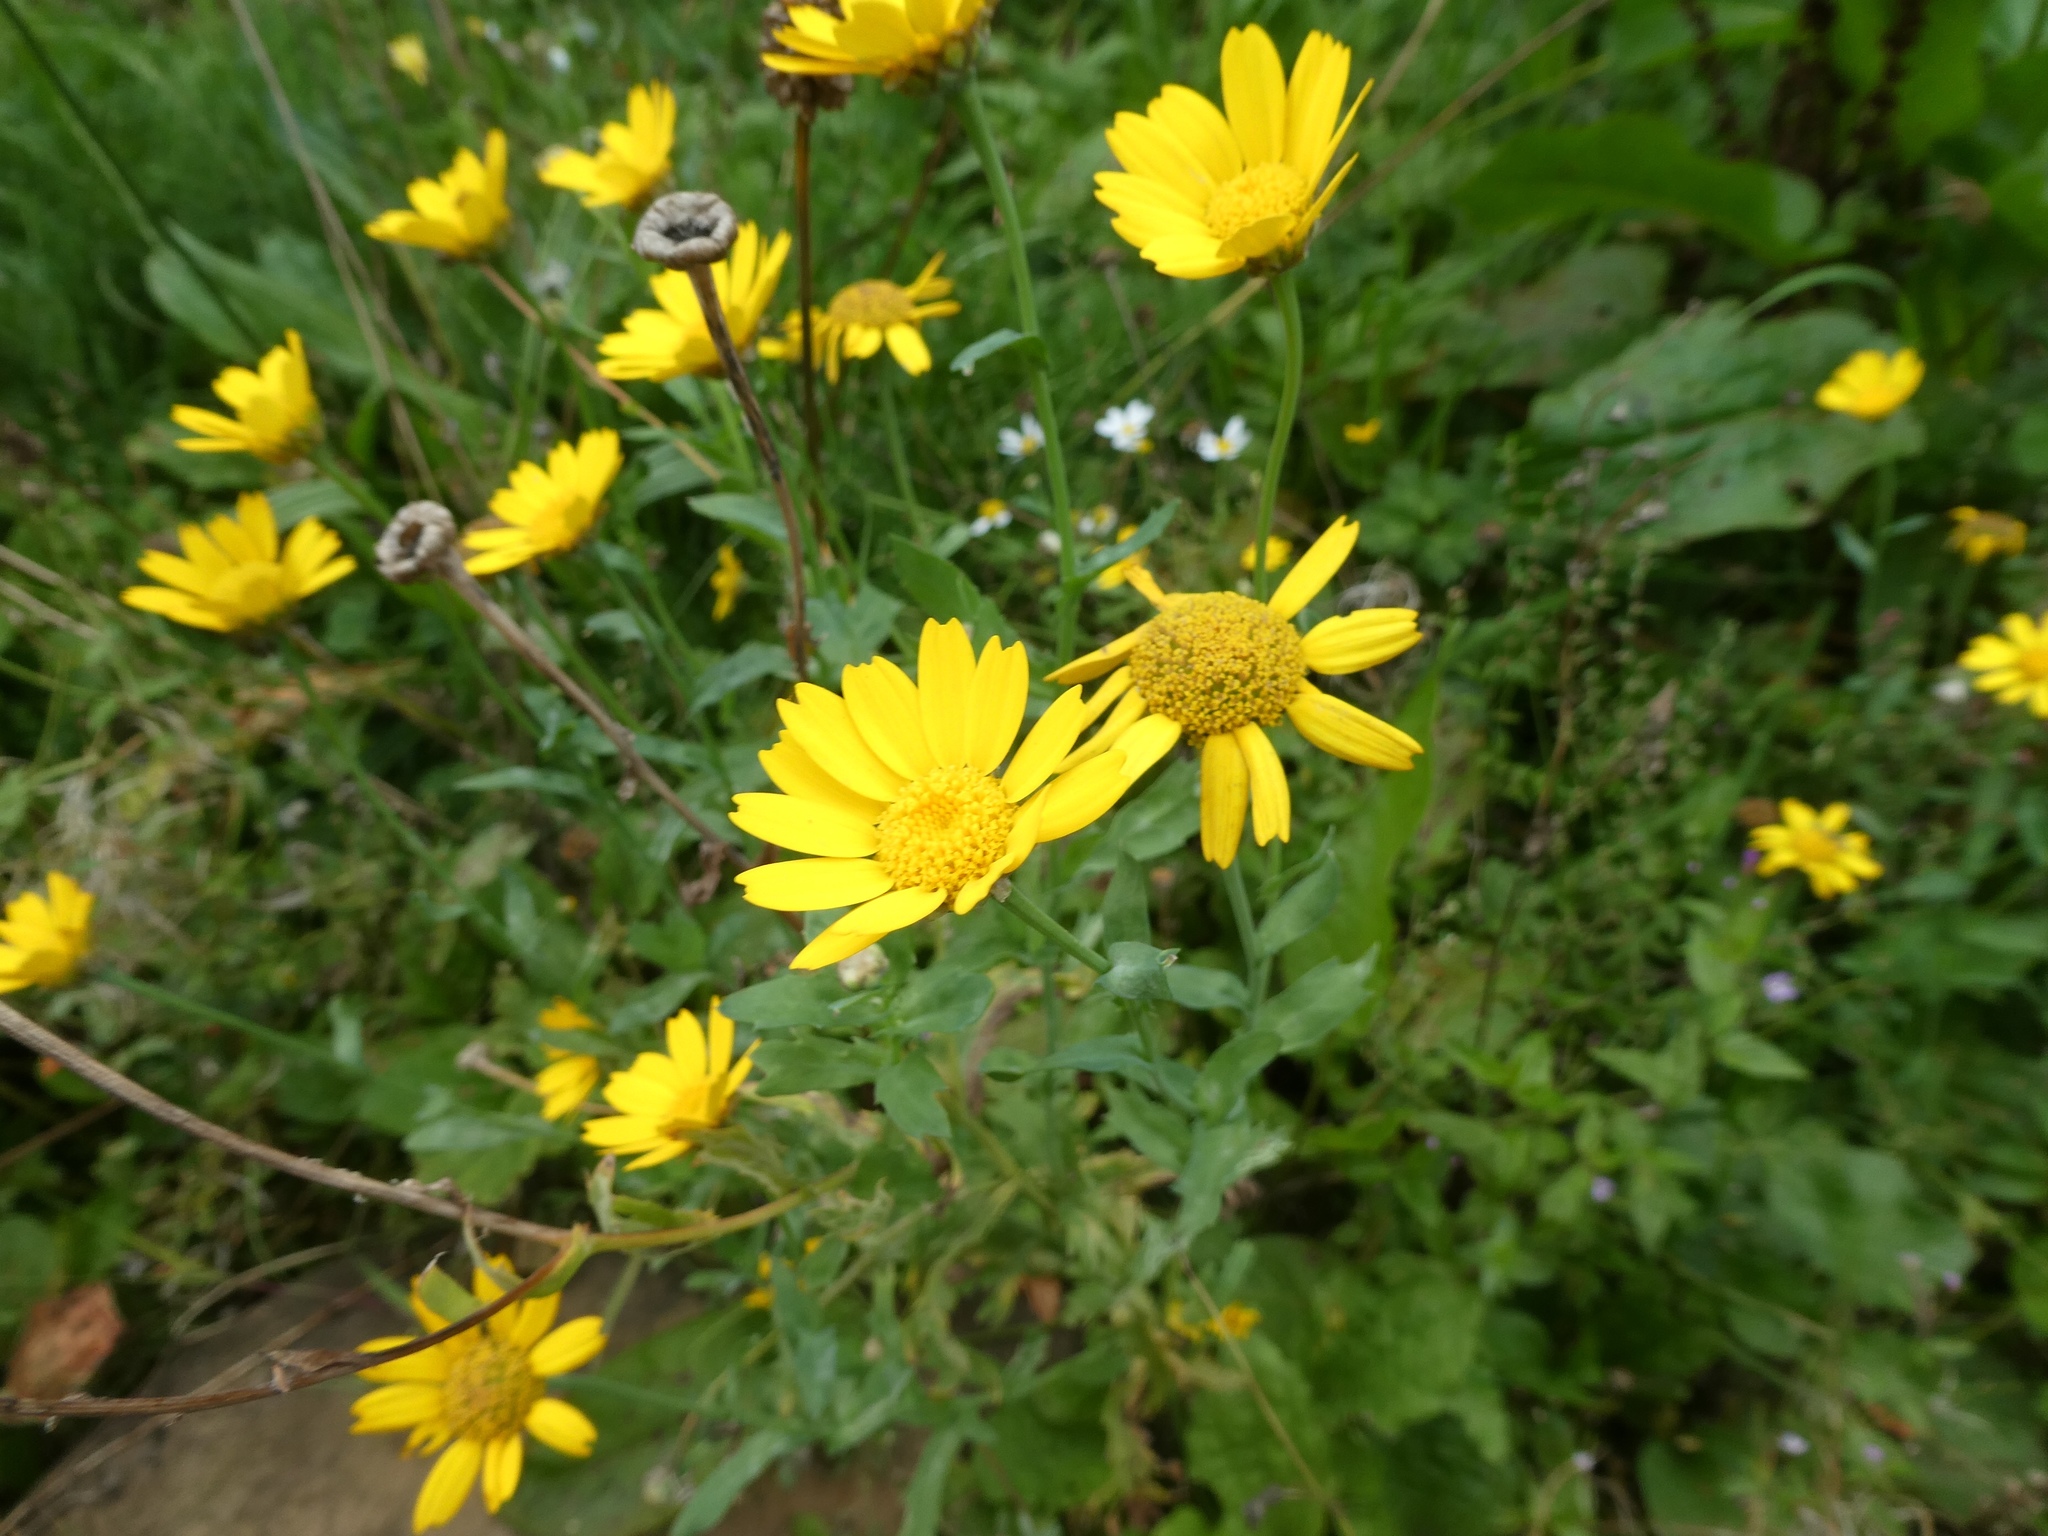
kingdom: Plantae
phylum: Tracheophyta
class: Magnoliopsida
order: Asterales
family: Asteraceae
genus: Glebionis
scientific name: Glebionis segetum
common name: Corndaisy
